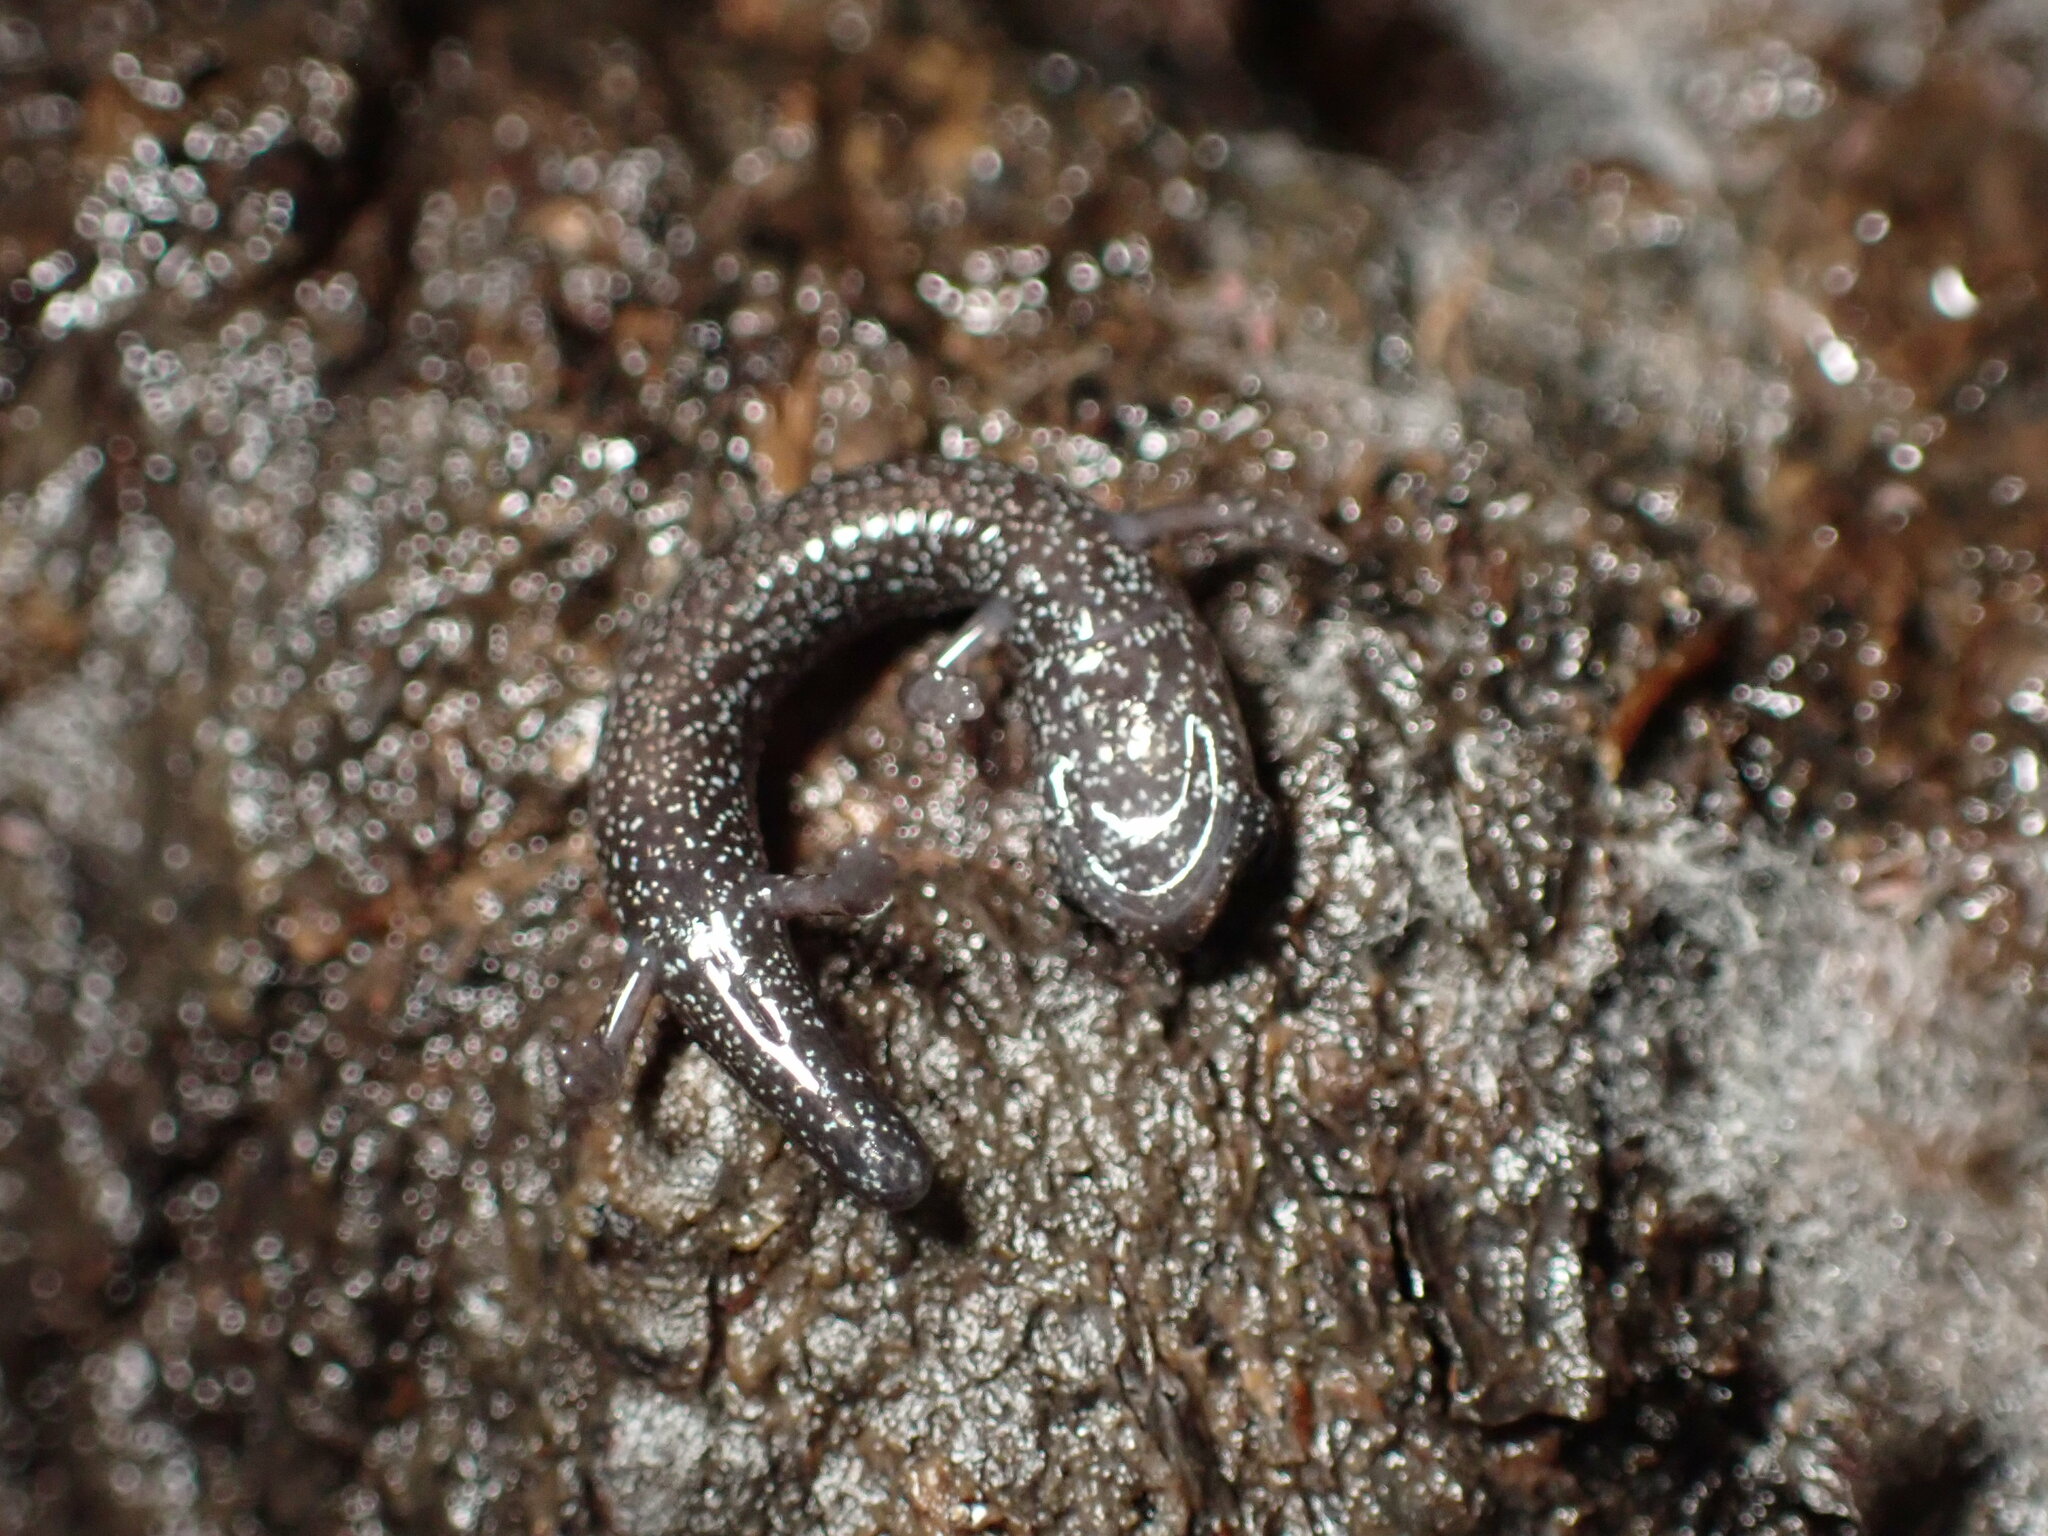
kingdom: Animalia
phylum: Chordata
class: Amphibia
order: Caudata
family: Plethodontidae
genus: Batrachoseps
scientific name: Batrachoseps
